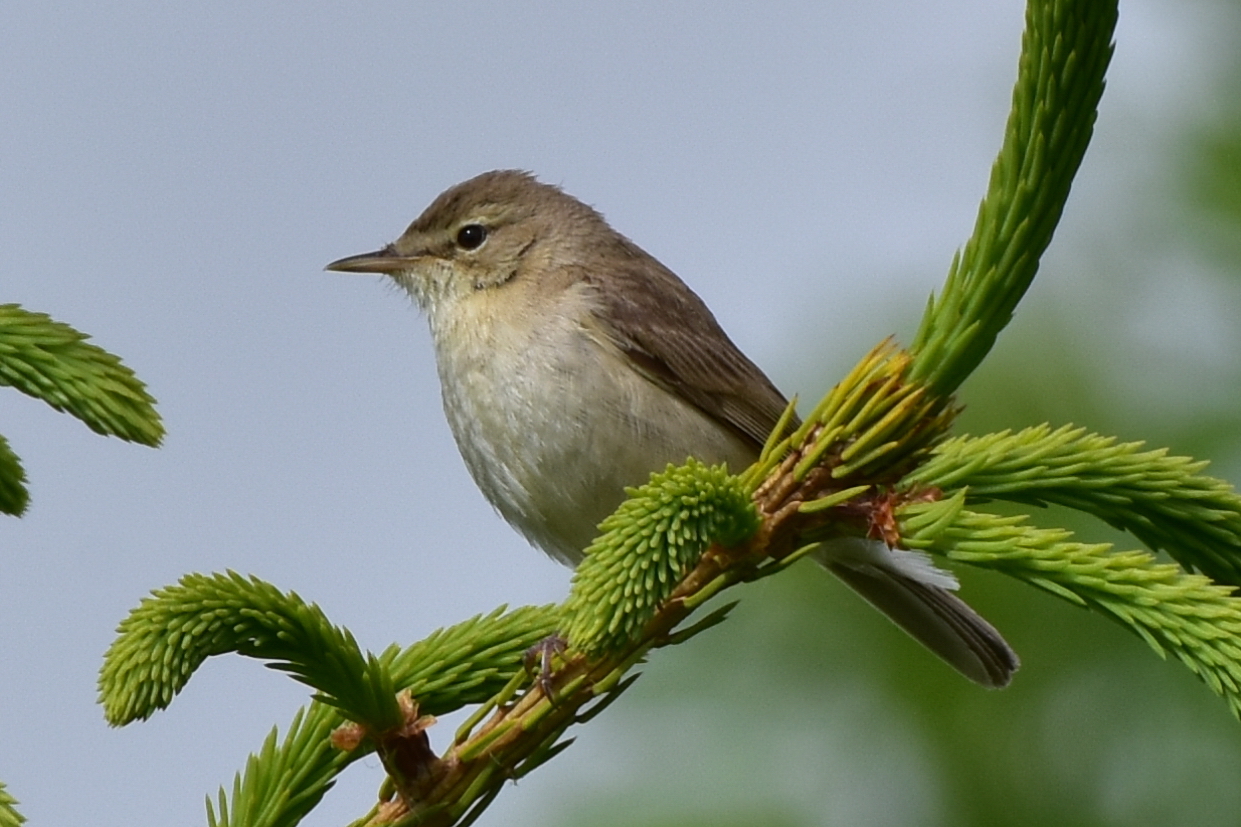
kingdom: Animalia
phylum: Chordata
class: Aves
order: Passeriformes
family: Acrocephalidae
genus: Iduna
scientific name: Iduna caligata
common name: Booted warbler
